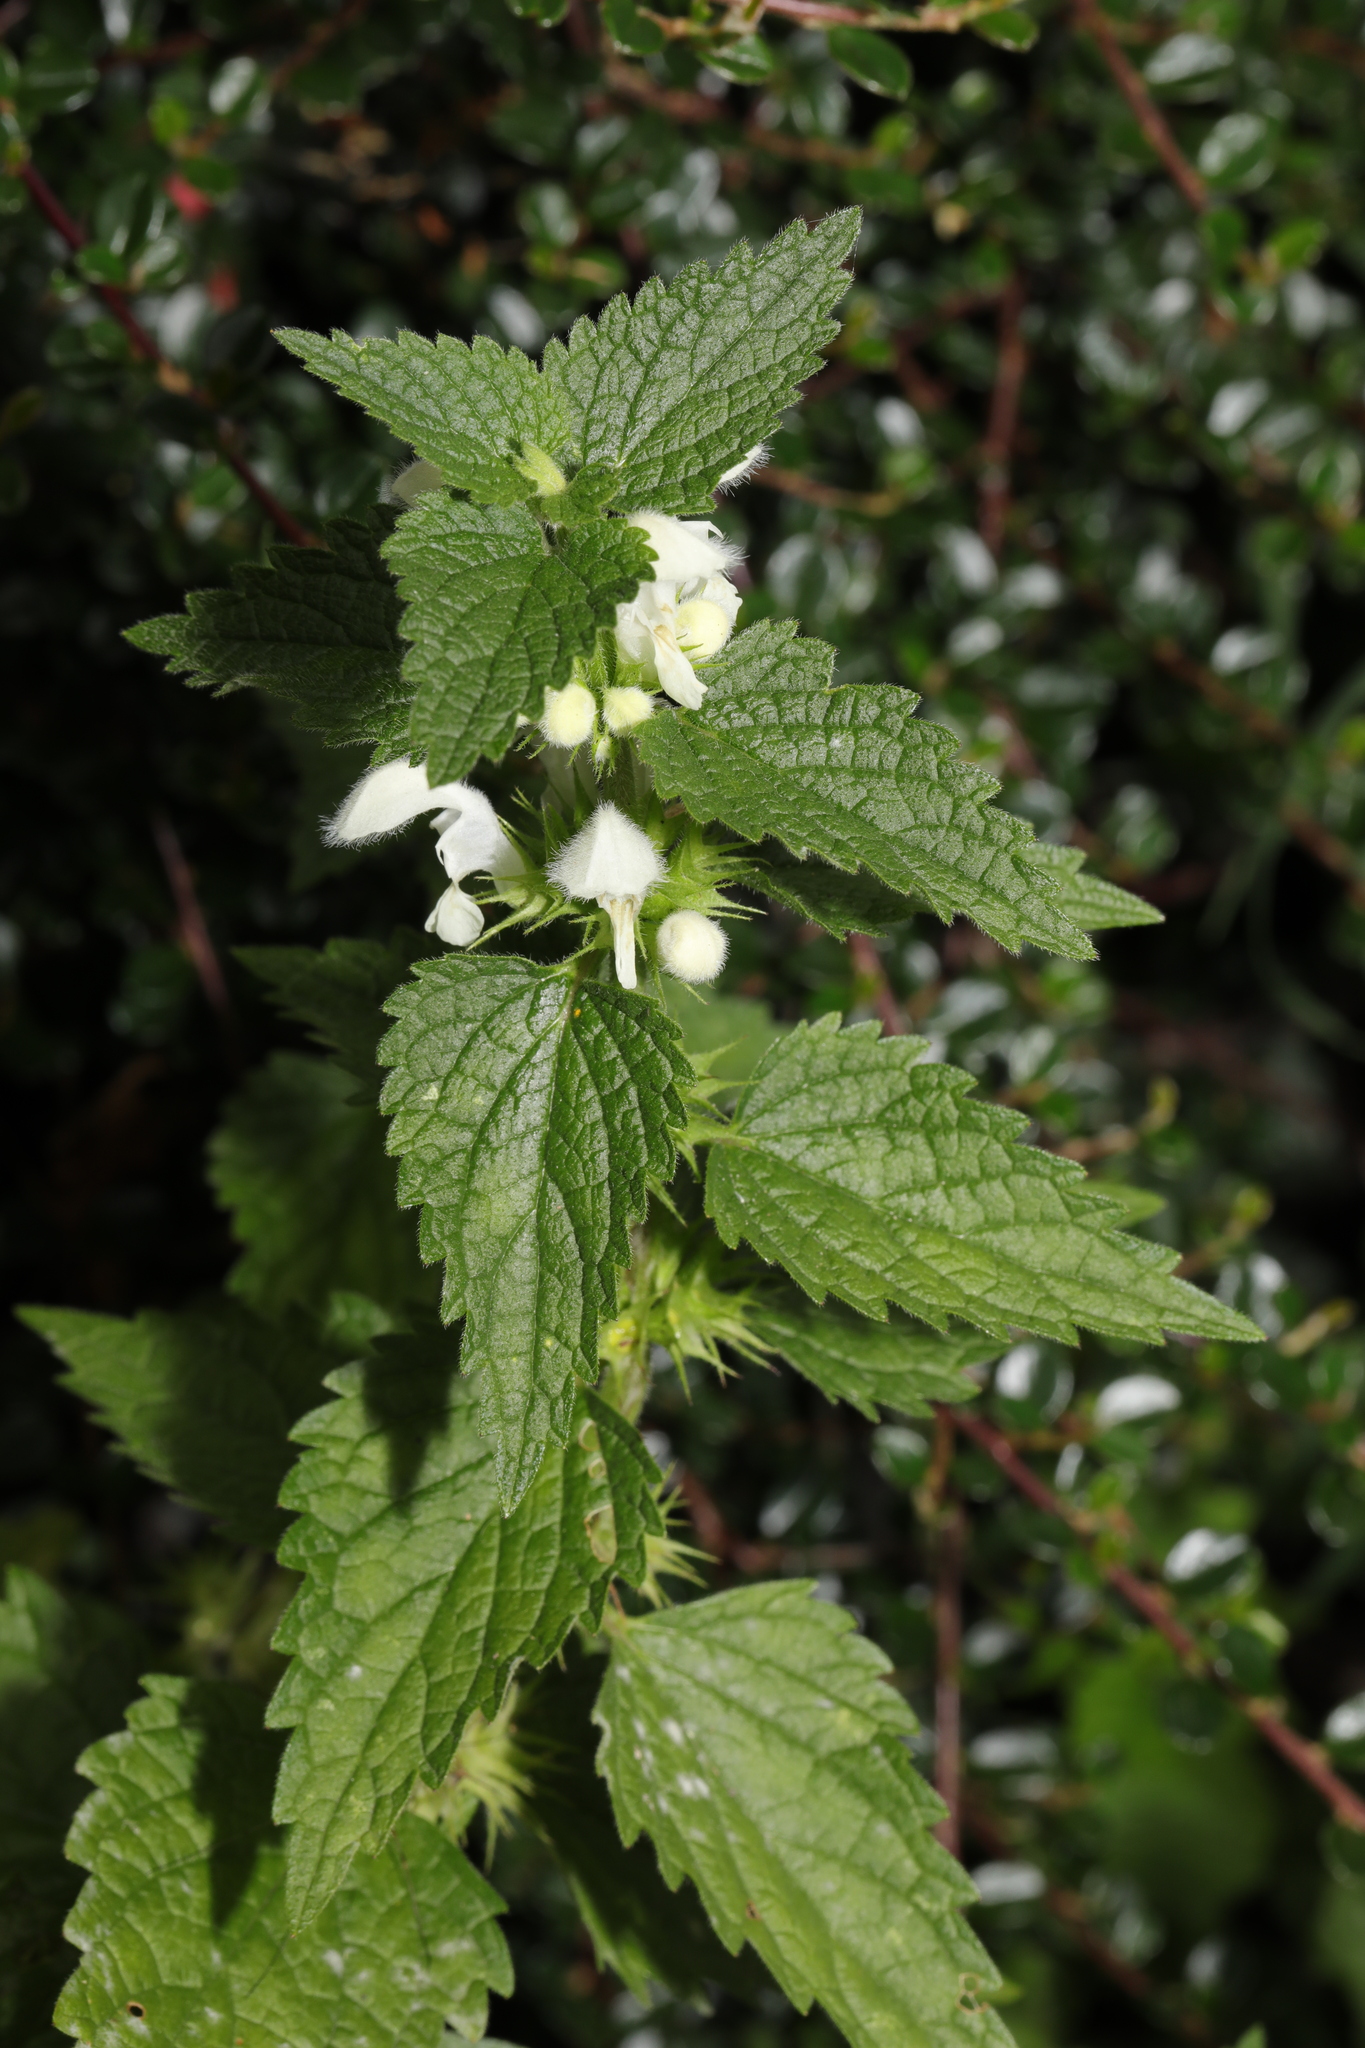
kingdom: Plantae
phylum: Tracheophyta
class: Magnoliopsida
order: Lamiales
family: Lamiaceae
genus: Lamium
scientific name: Lamium album
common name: White dead-nettle
